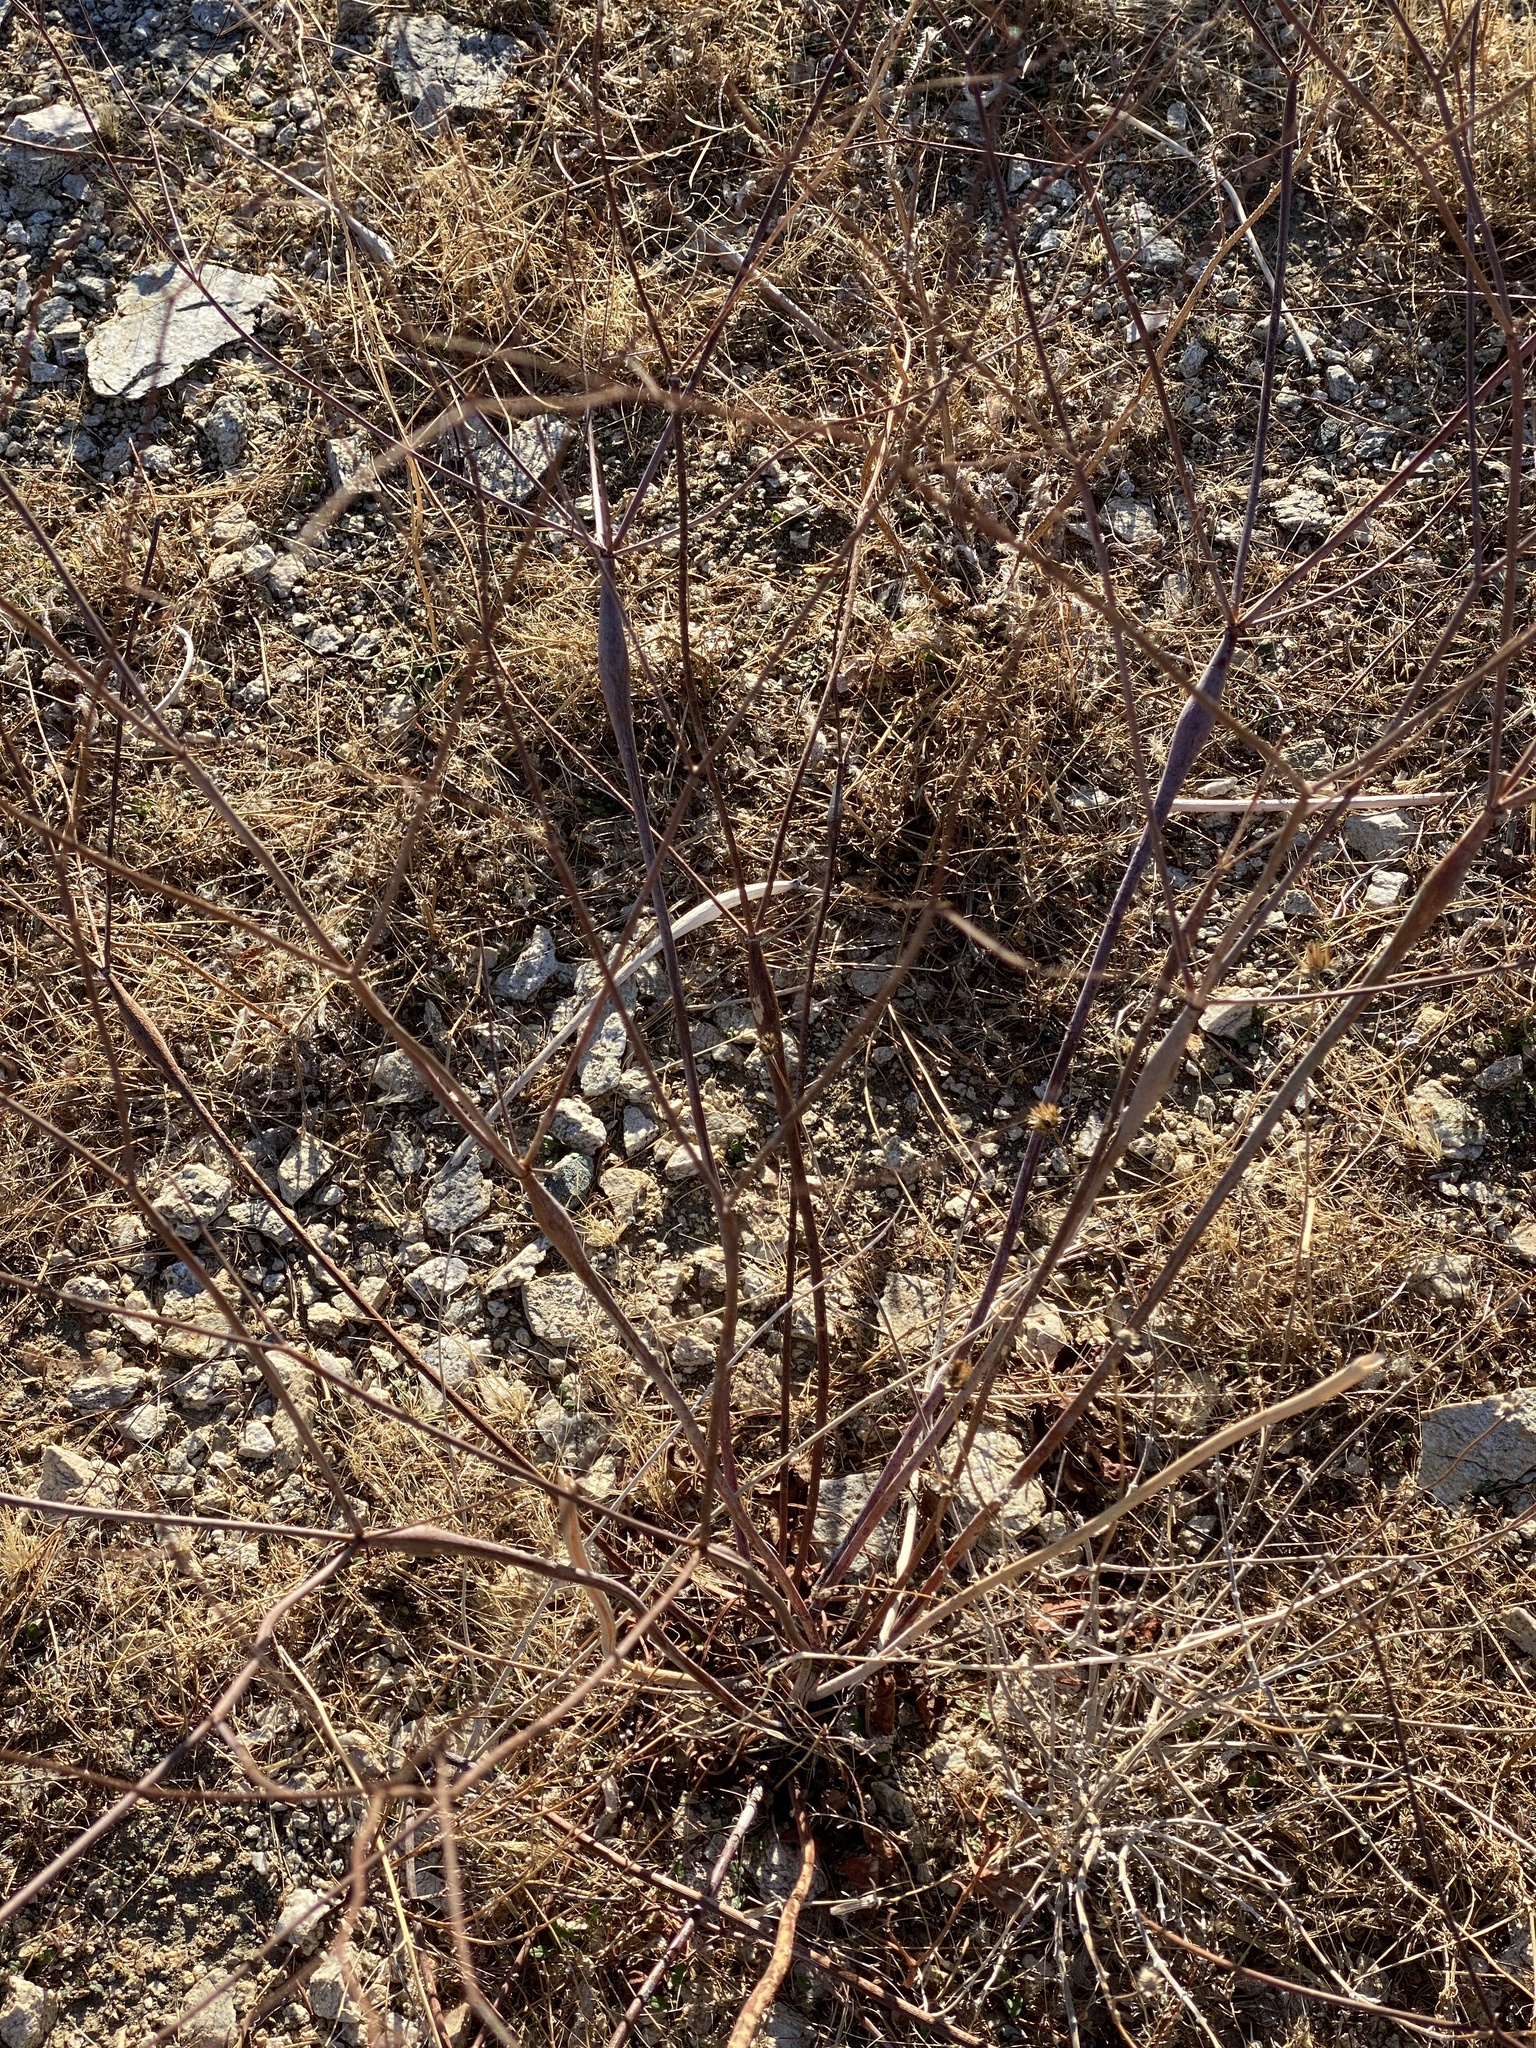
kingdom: Plantae
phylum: Tracheophyta
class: Magnoliopsida
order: Caryophyllales
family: Polygonaceae
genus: Eriogonum
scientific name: Eriogonum inflatum
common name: Desert trumpet
